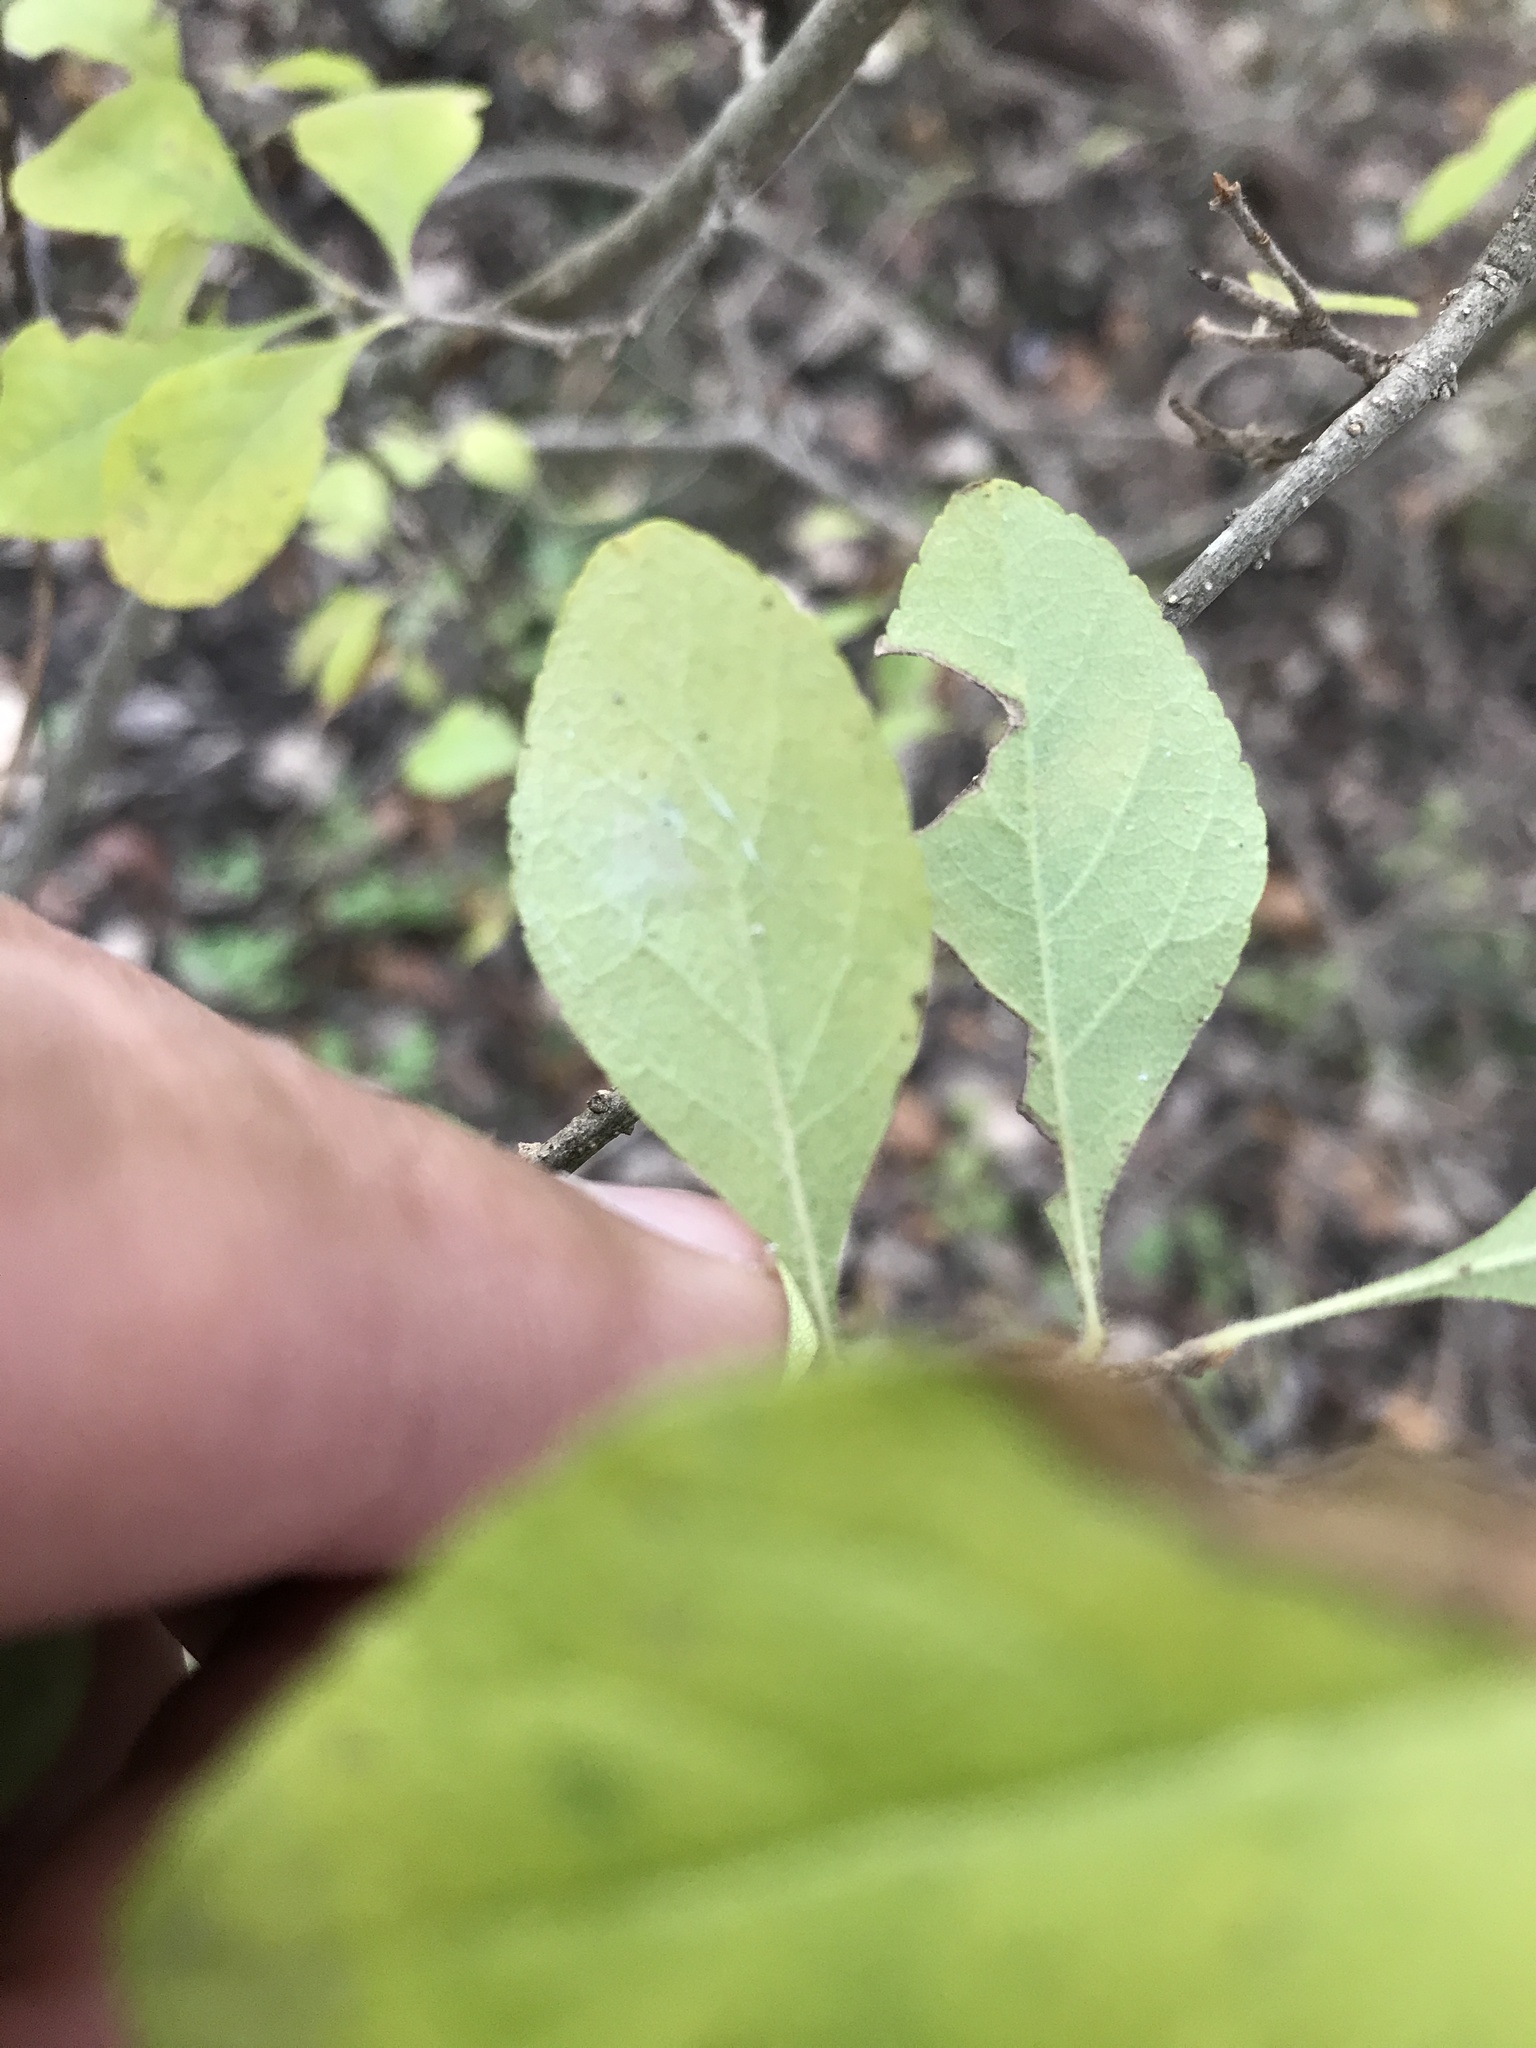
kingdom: Plantae
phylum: Tracheophyta
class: Magnoliopsida
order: Lamiales
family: Oleaceae
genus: Forestiera
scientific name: Forestiera pubescens
